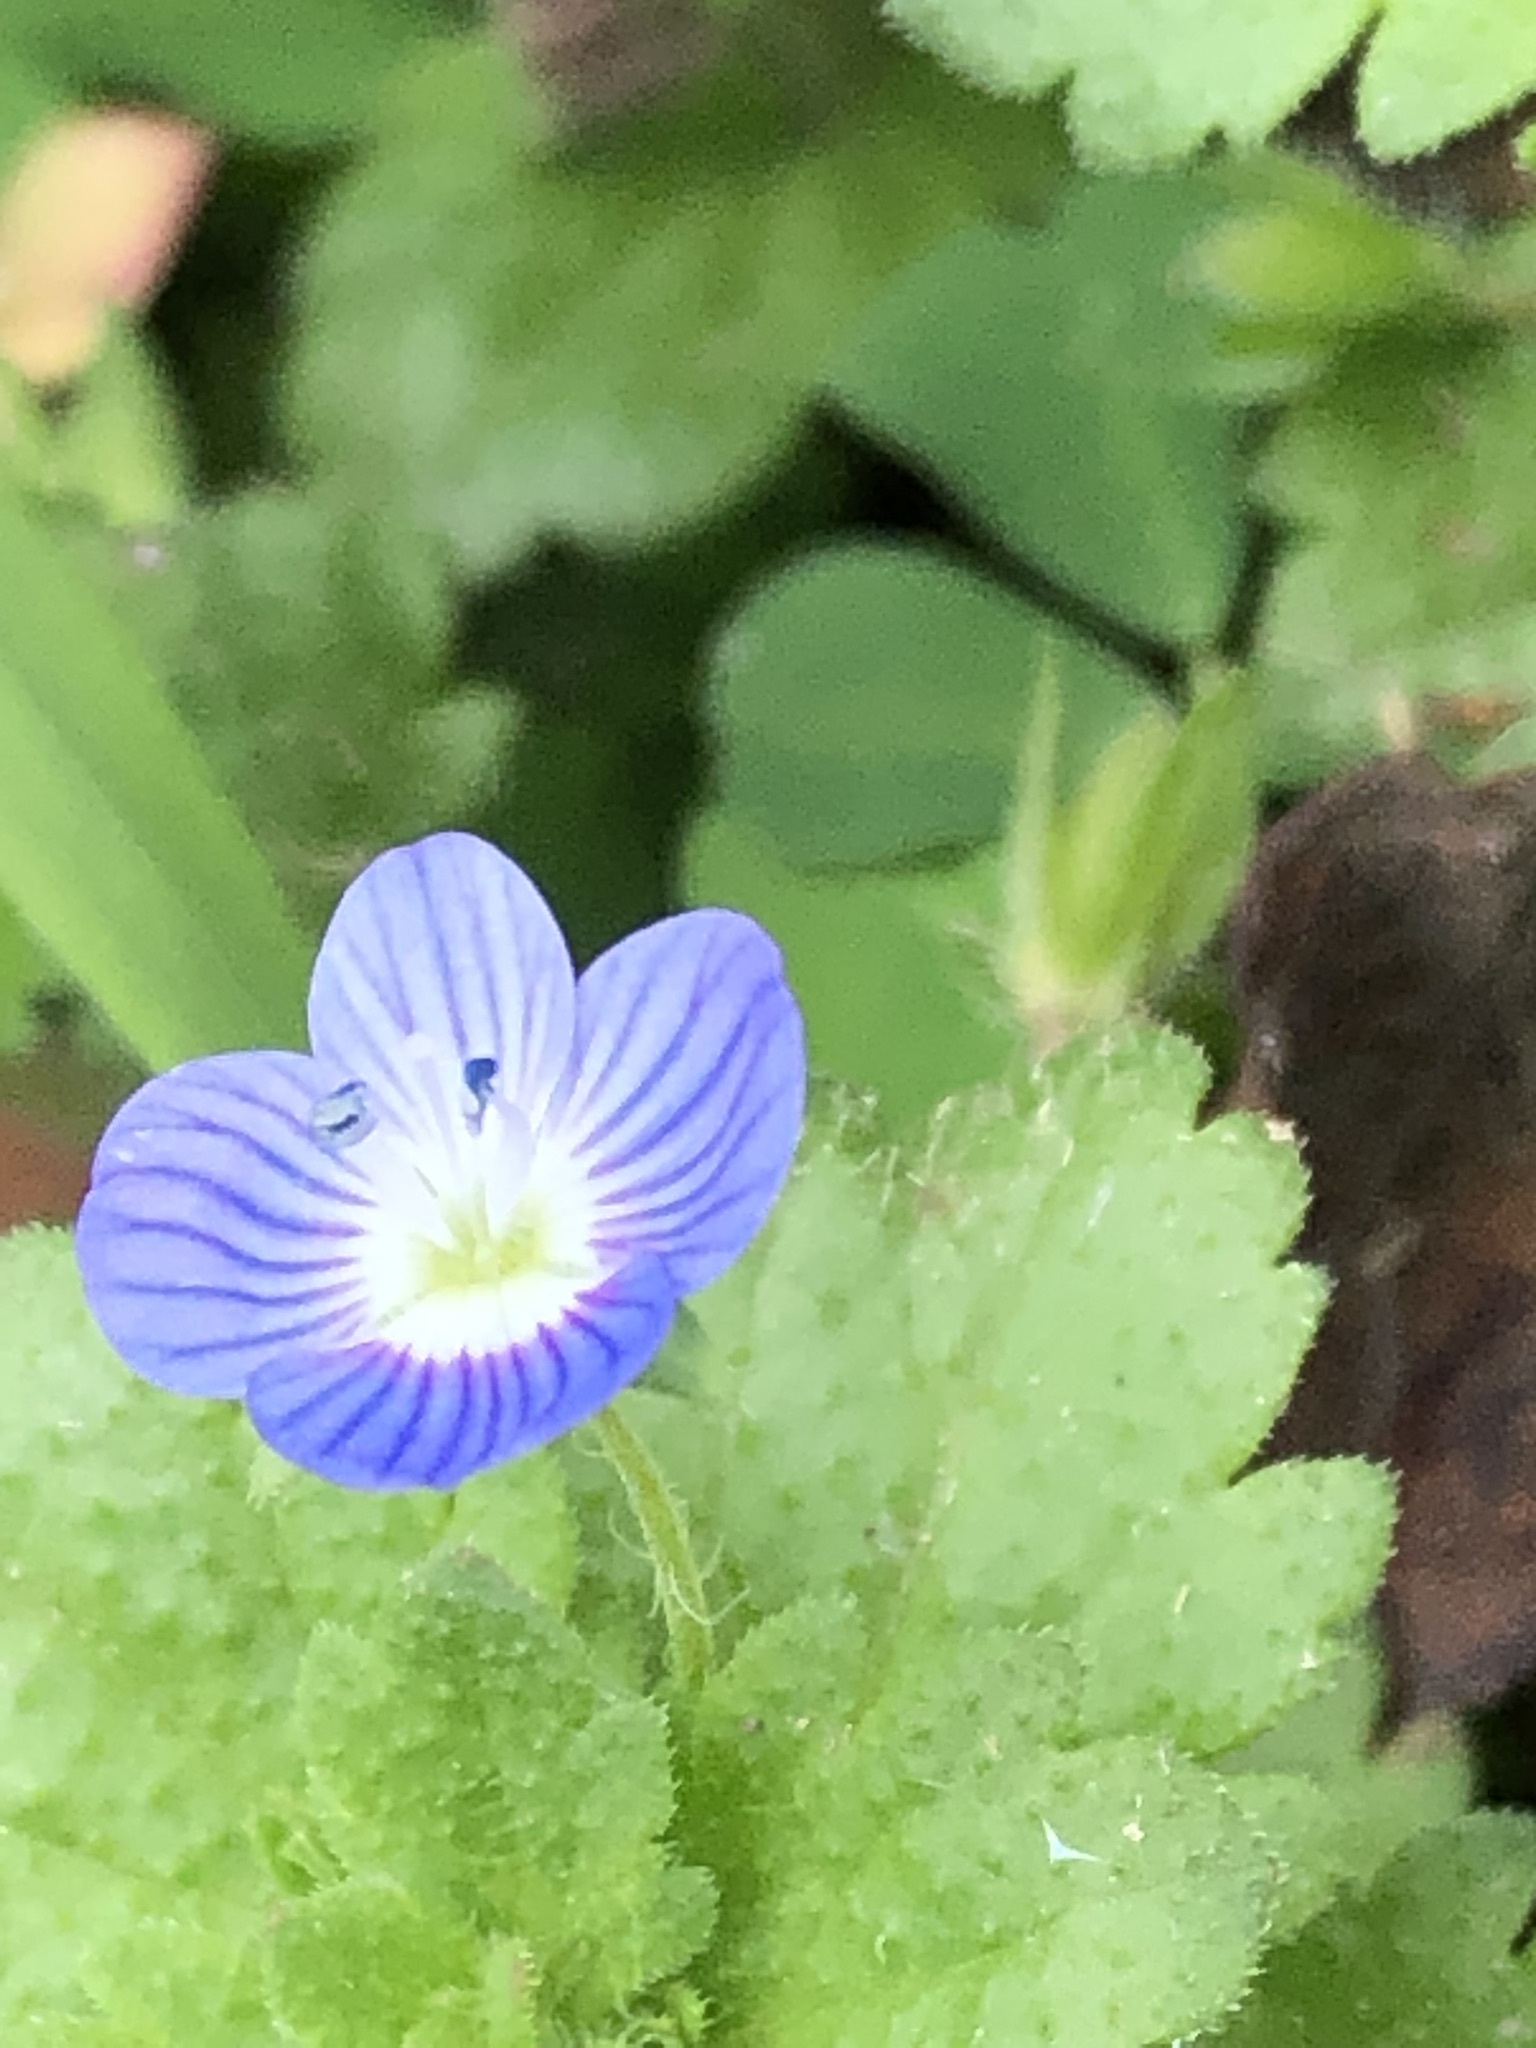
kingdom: Plantae
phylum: Tracheophyta
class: Magnoliopsida
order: Lamiales
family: Plantaginaceae
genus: Veronica
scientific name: Veronica persica
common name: Common field-speedwell
